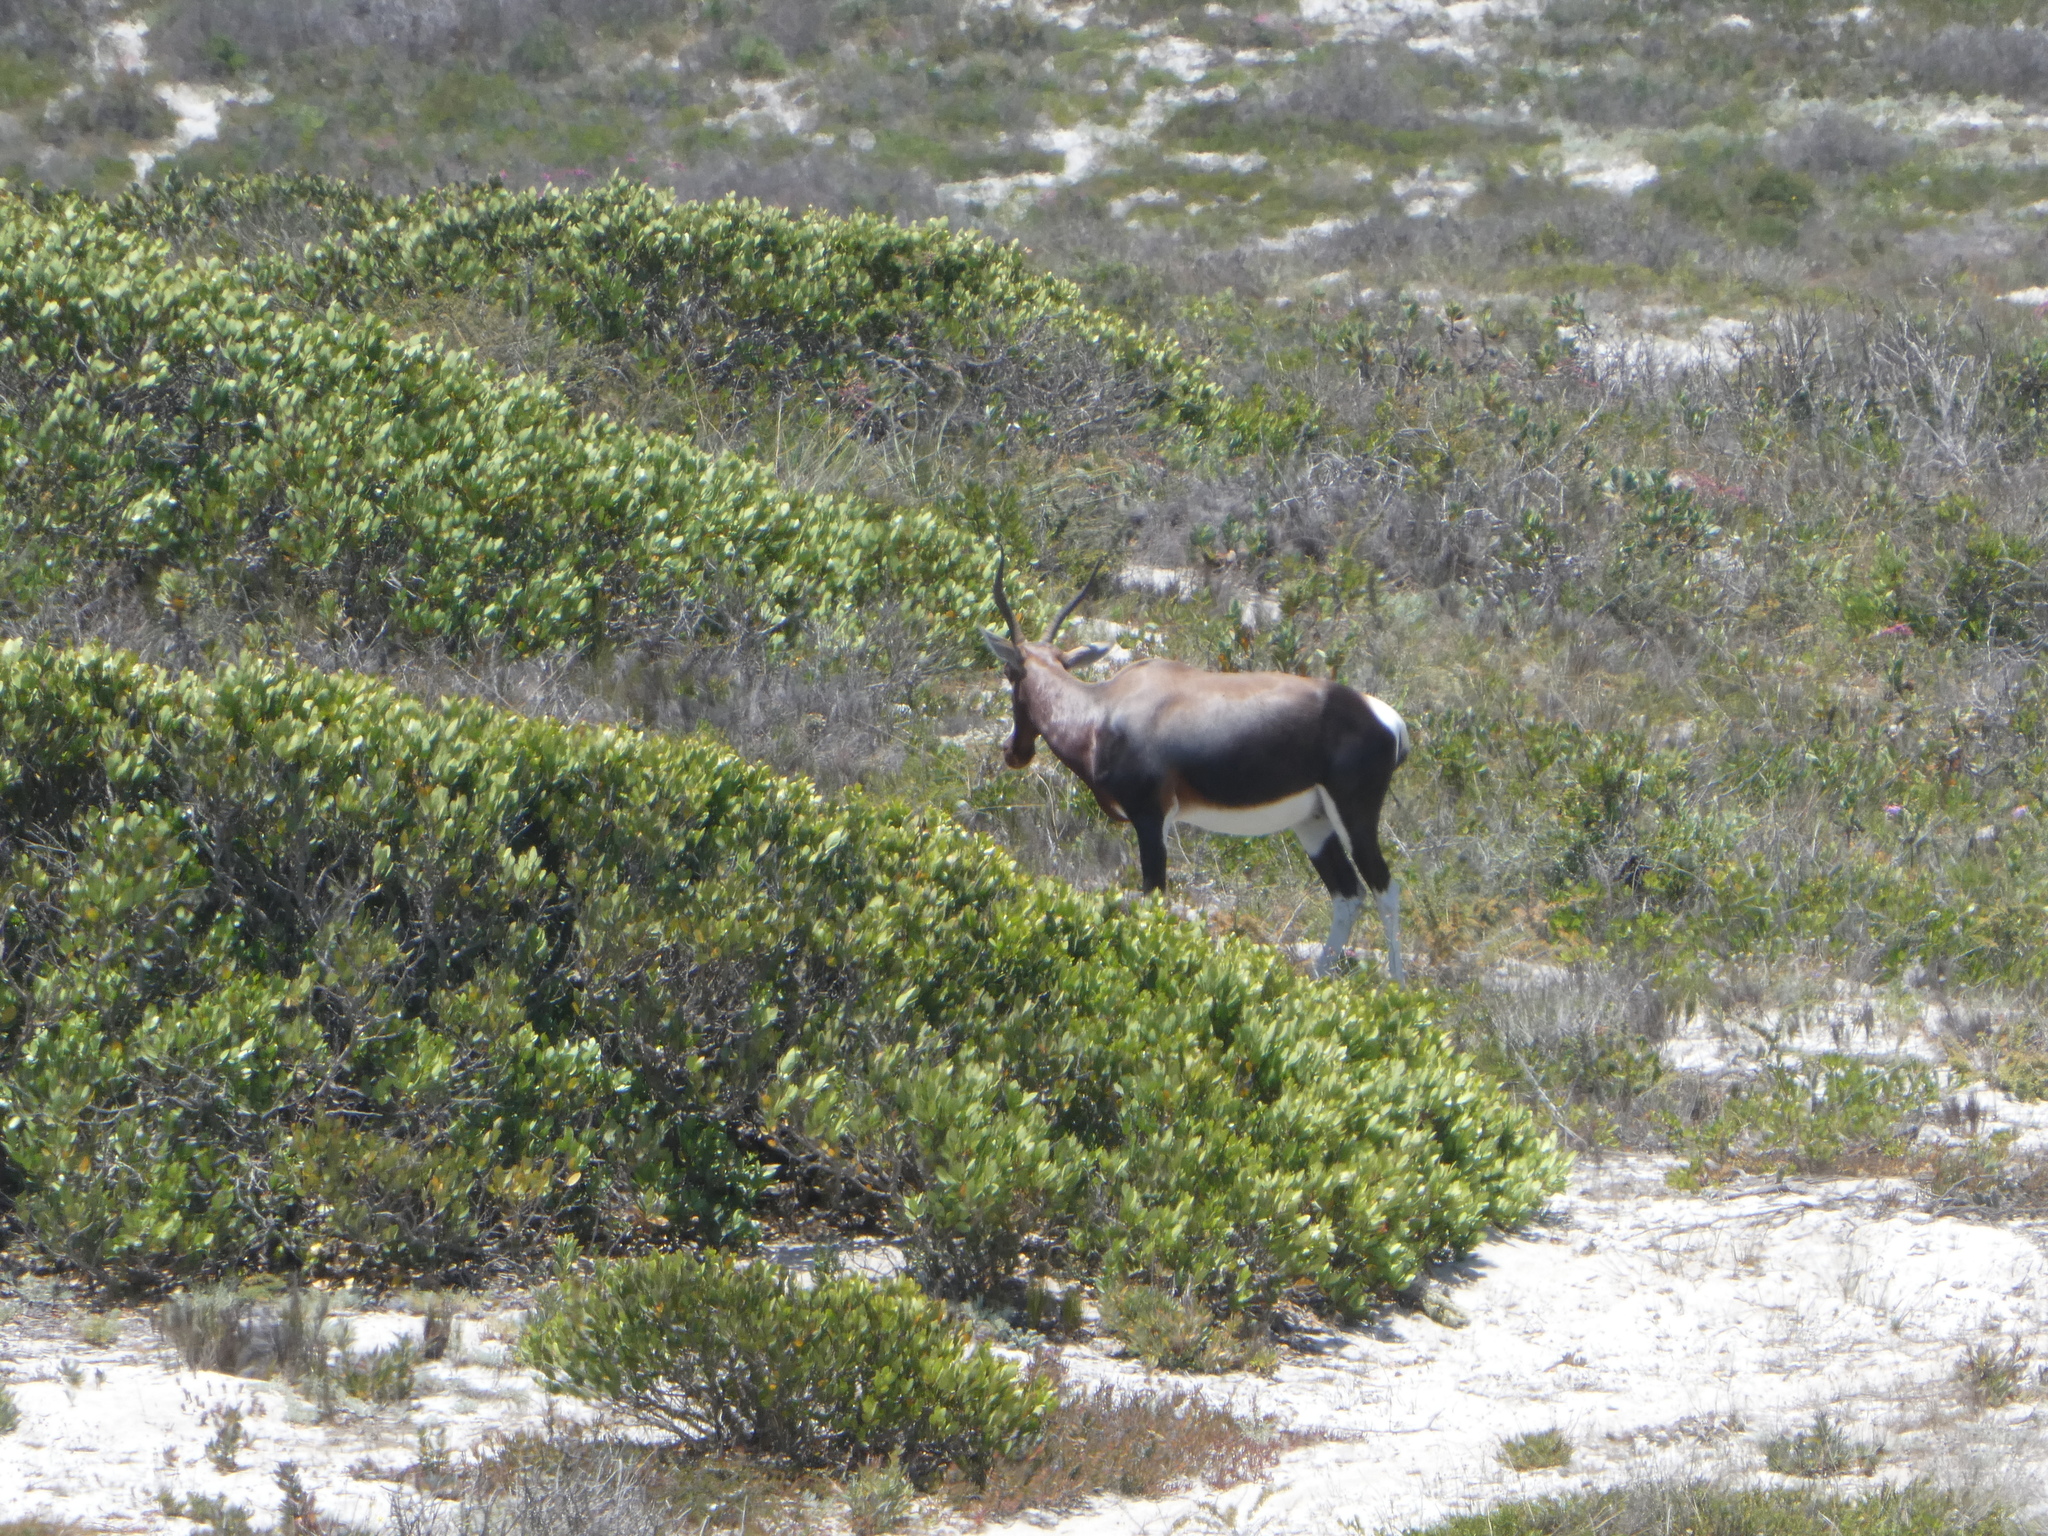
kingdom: Animalia
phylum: Chordata
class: Mammalia
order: Artiodactyla
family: Bovidae
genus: Damaliscus
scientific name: Damaliscus pygargus
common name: Bontebok
